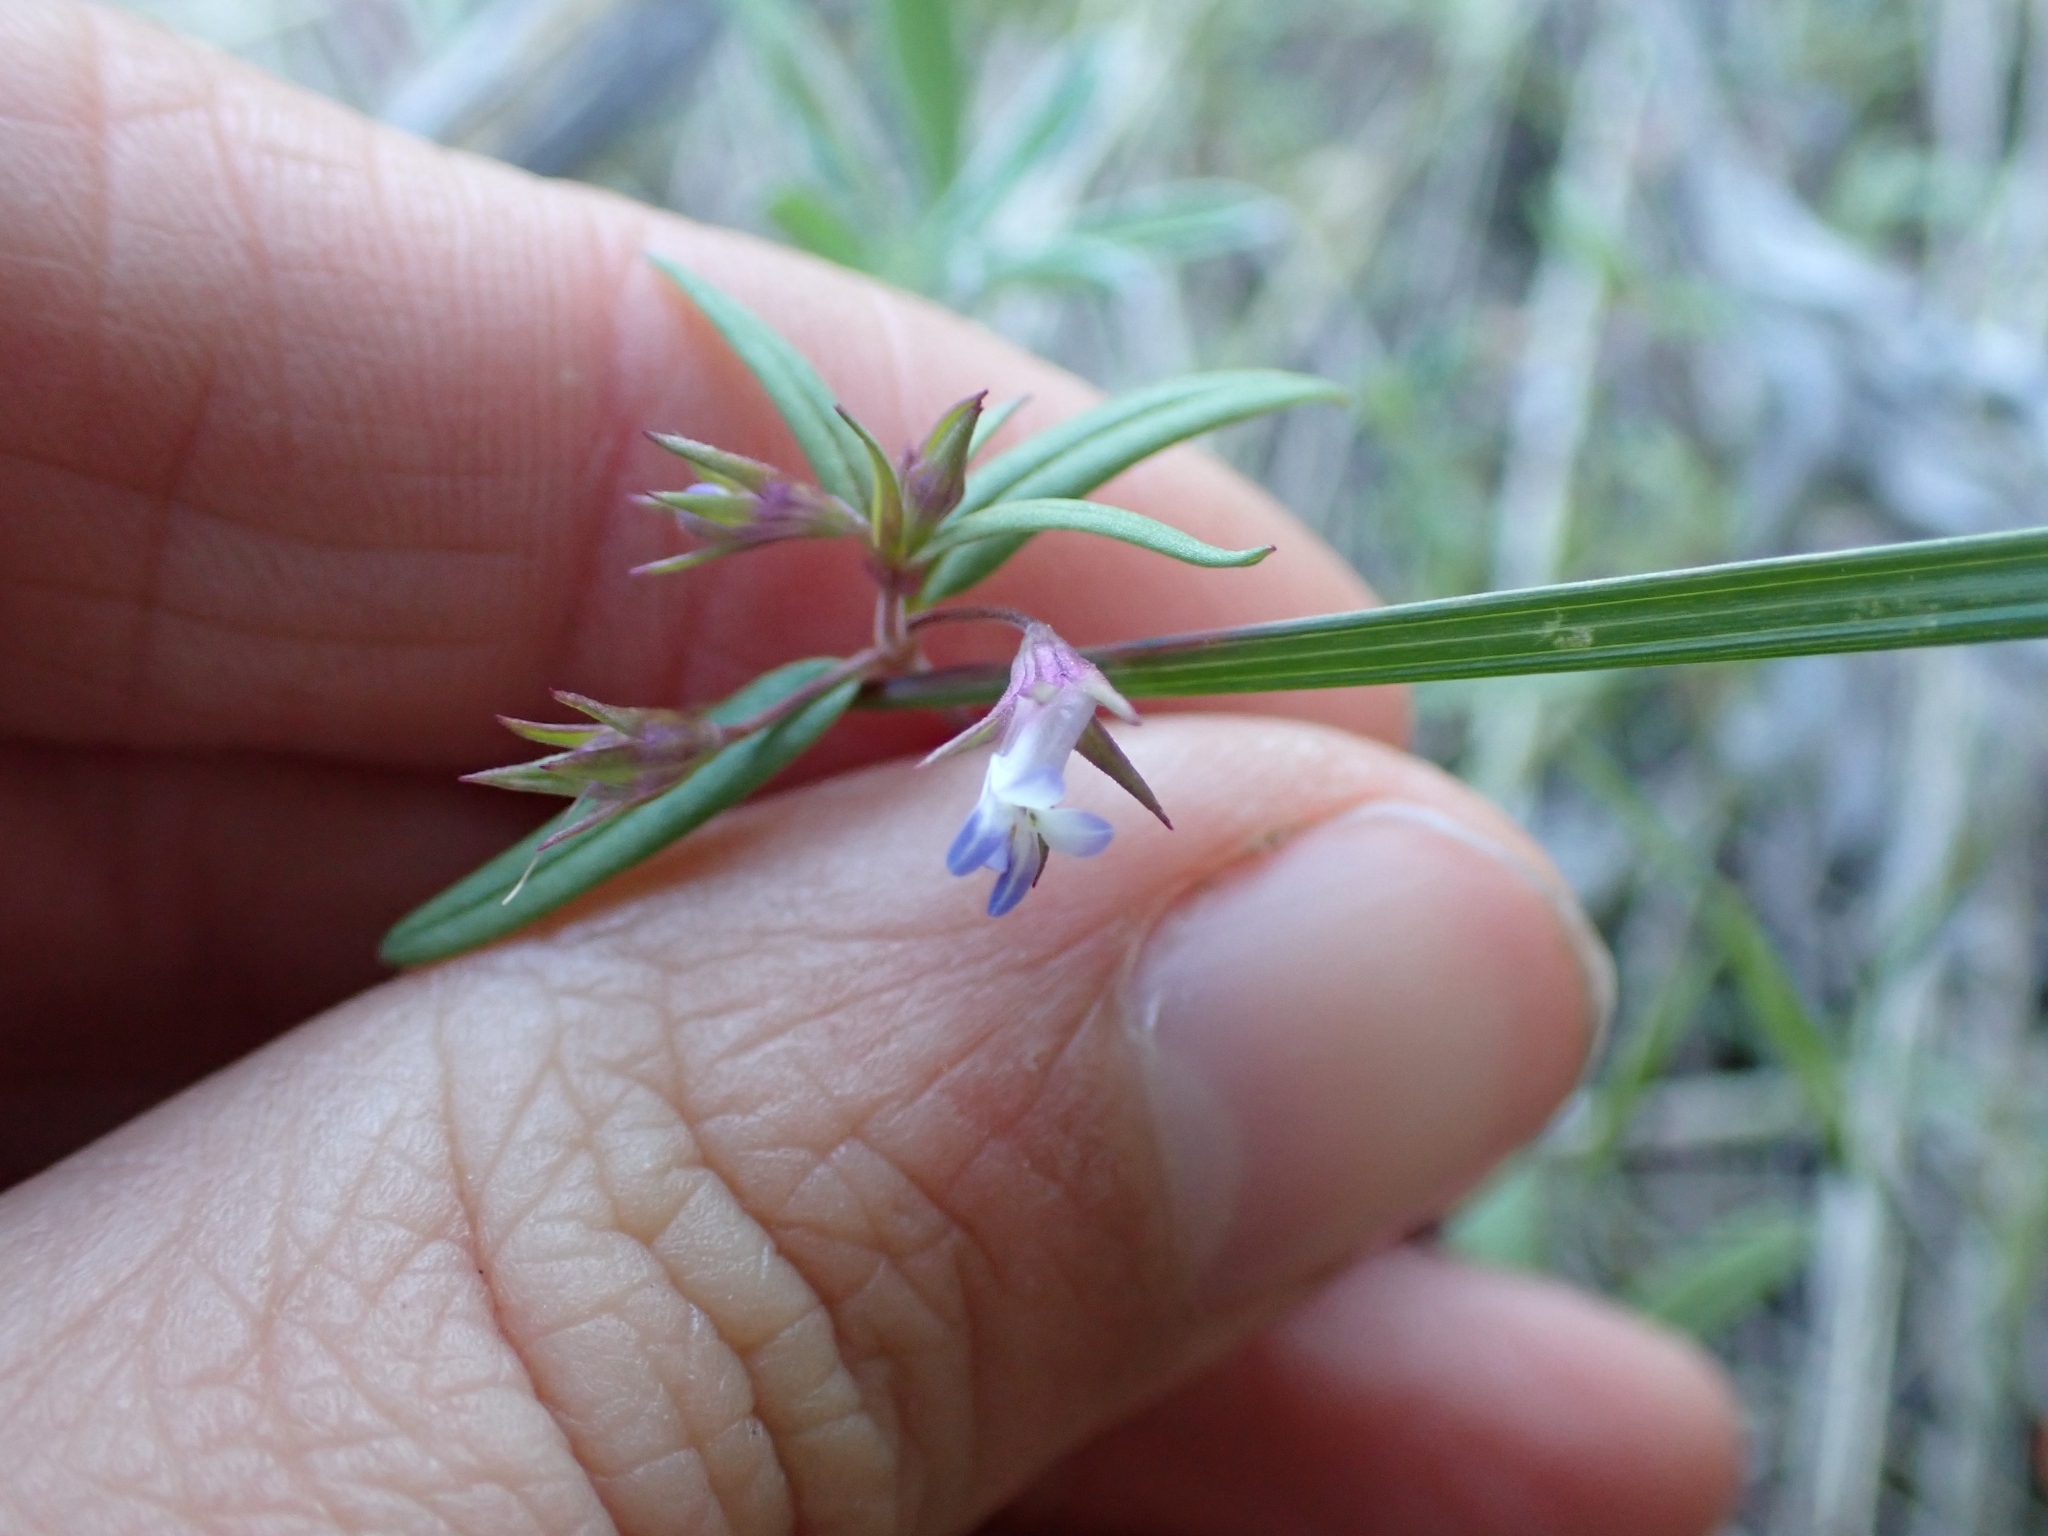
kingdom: Plantae
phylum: Tracheophyta
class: Magnoliopsida
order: Lamiales
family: Plantaginaceae
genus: Collinsia
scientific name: Collinsia parviflora
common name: Blue-lips
